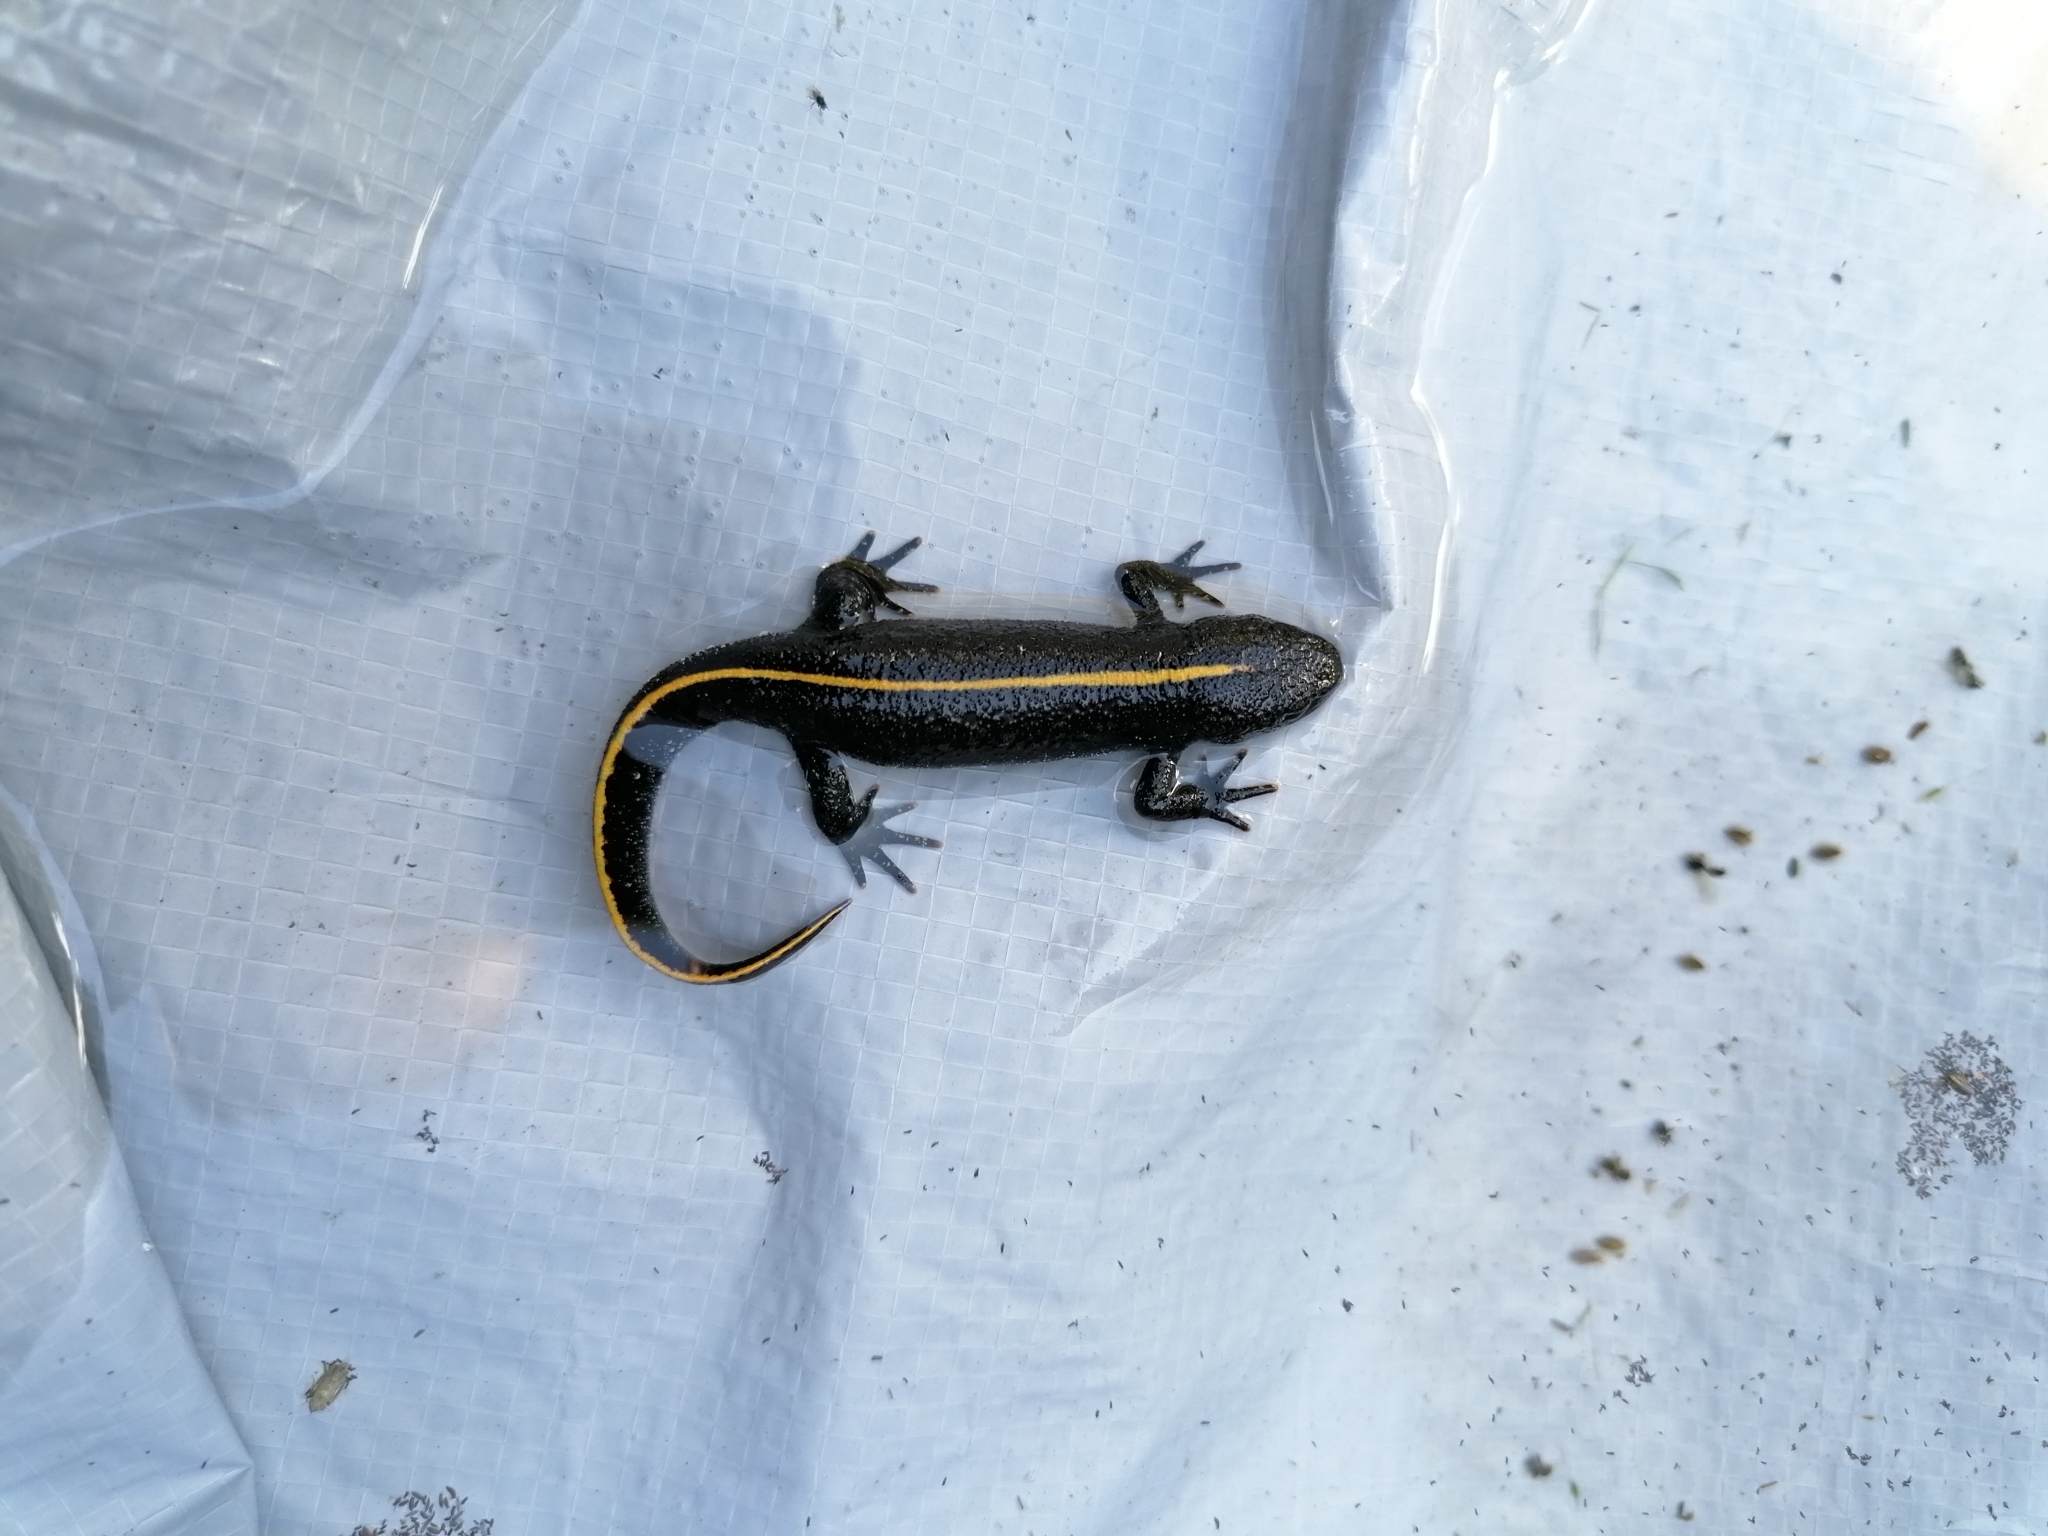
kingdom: Animalia
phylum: Chordata
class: Amphibia
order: Caudata
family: Salamandridae
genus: Triturus
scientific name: Triturus carnifex
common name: Italian crested newt
